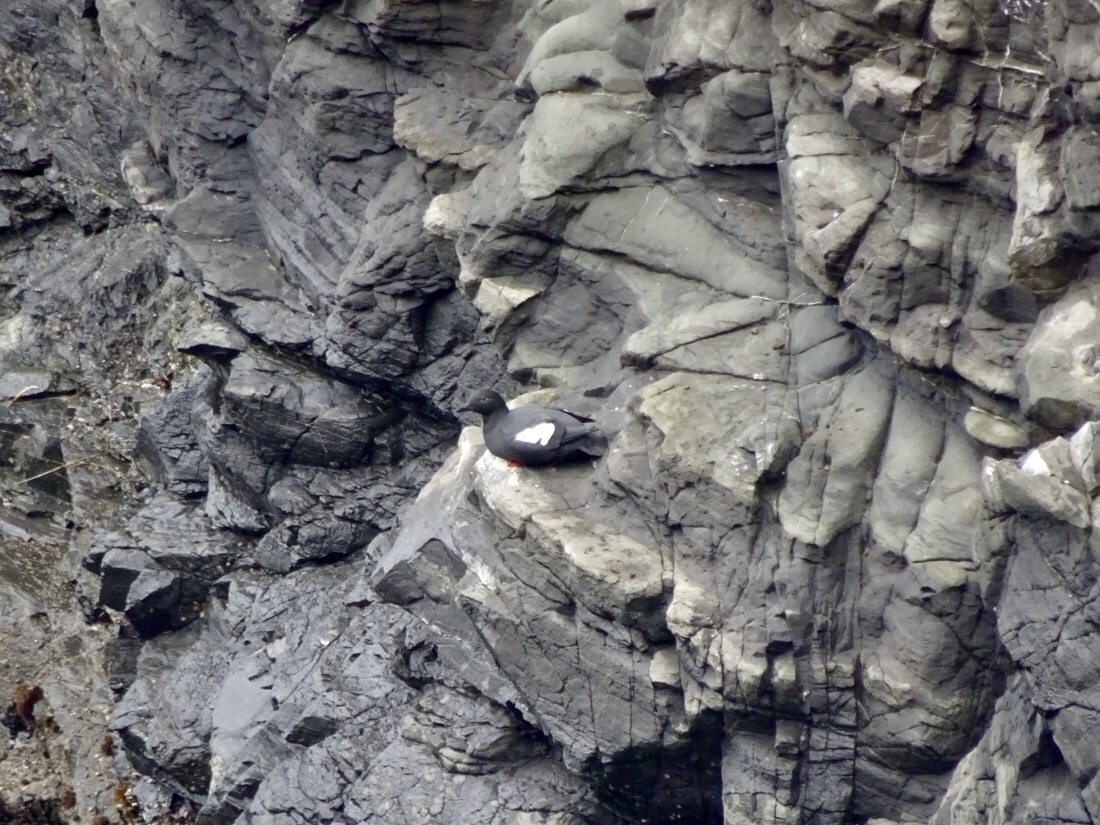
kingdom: Animalia
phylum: Chordata
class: Aves
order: Charadriiformes
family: Alcidae
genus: Cepphus
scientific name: Cepphus columba
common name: Pigeon guillemot
